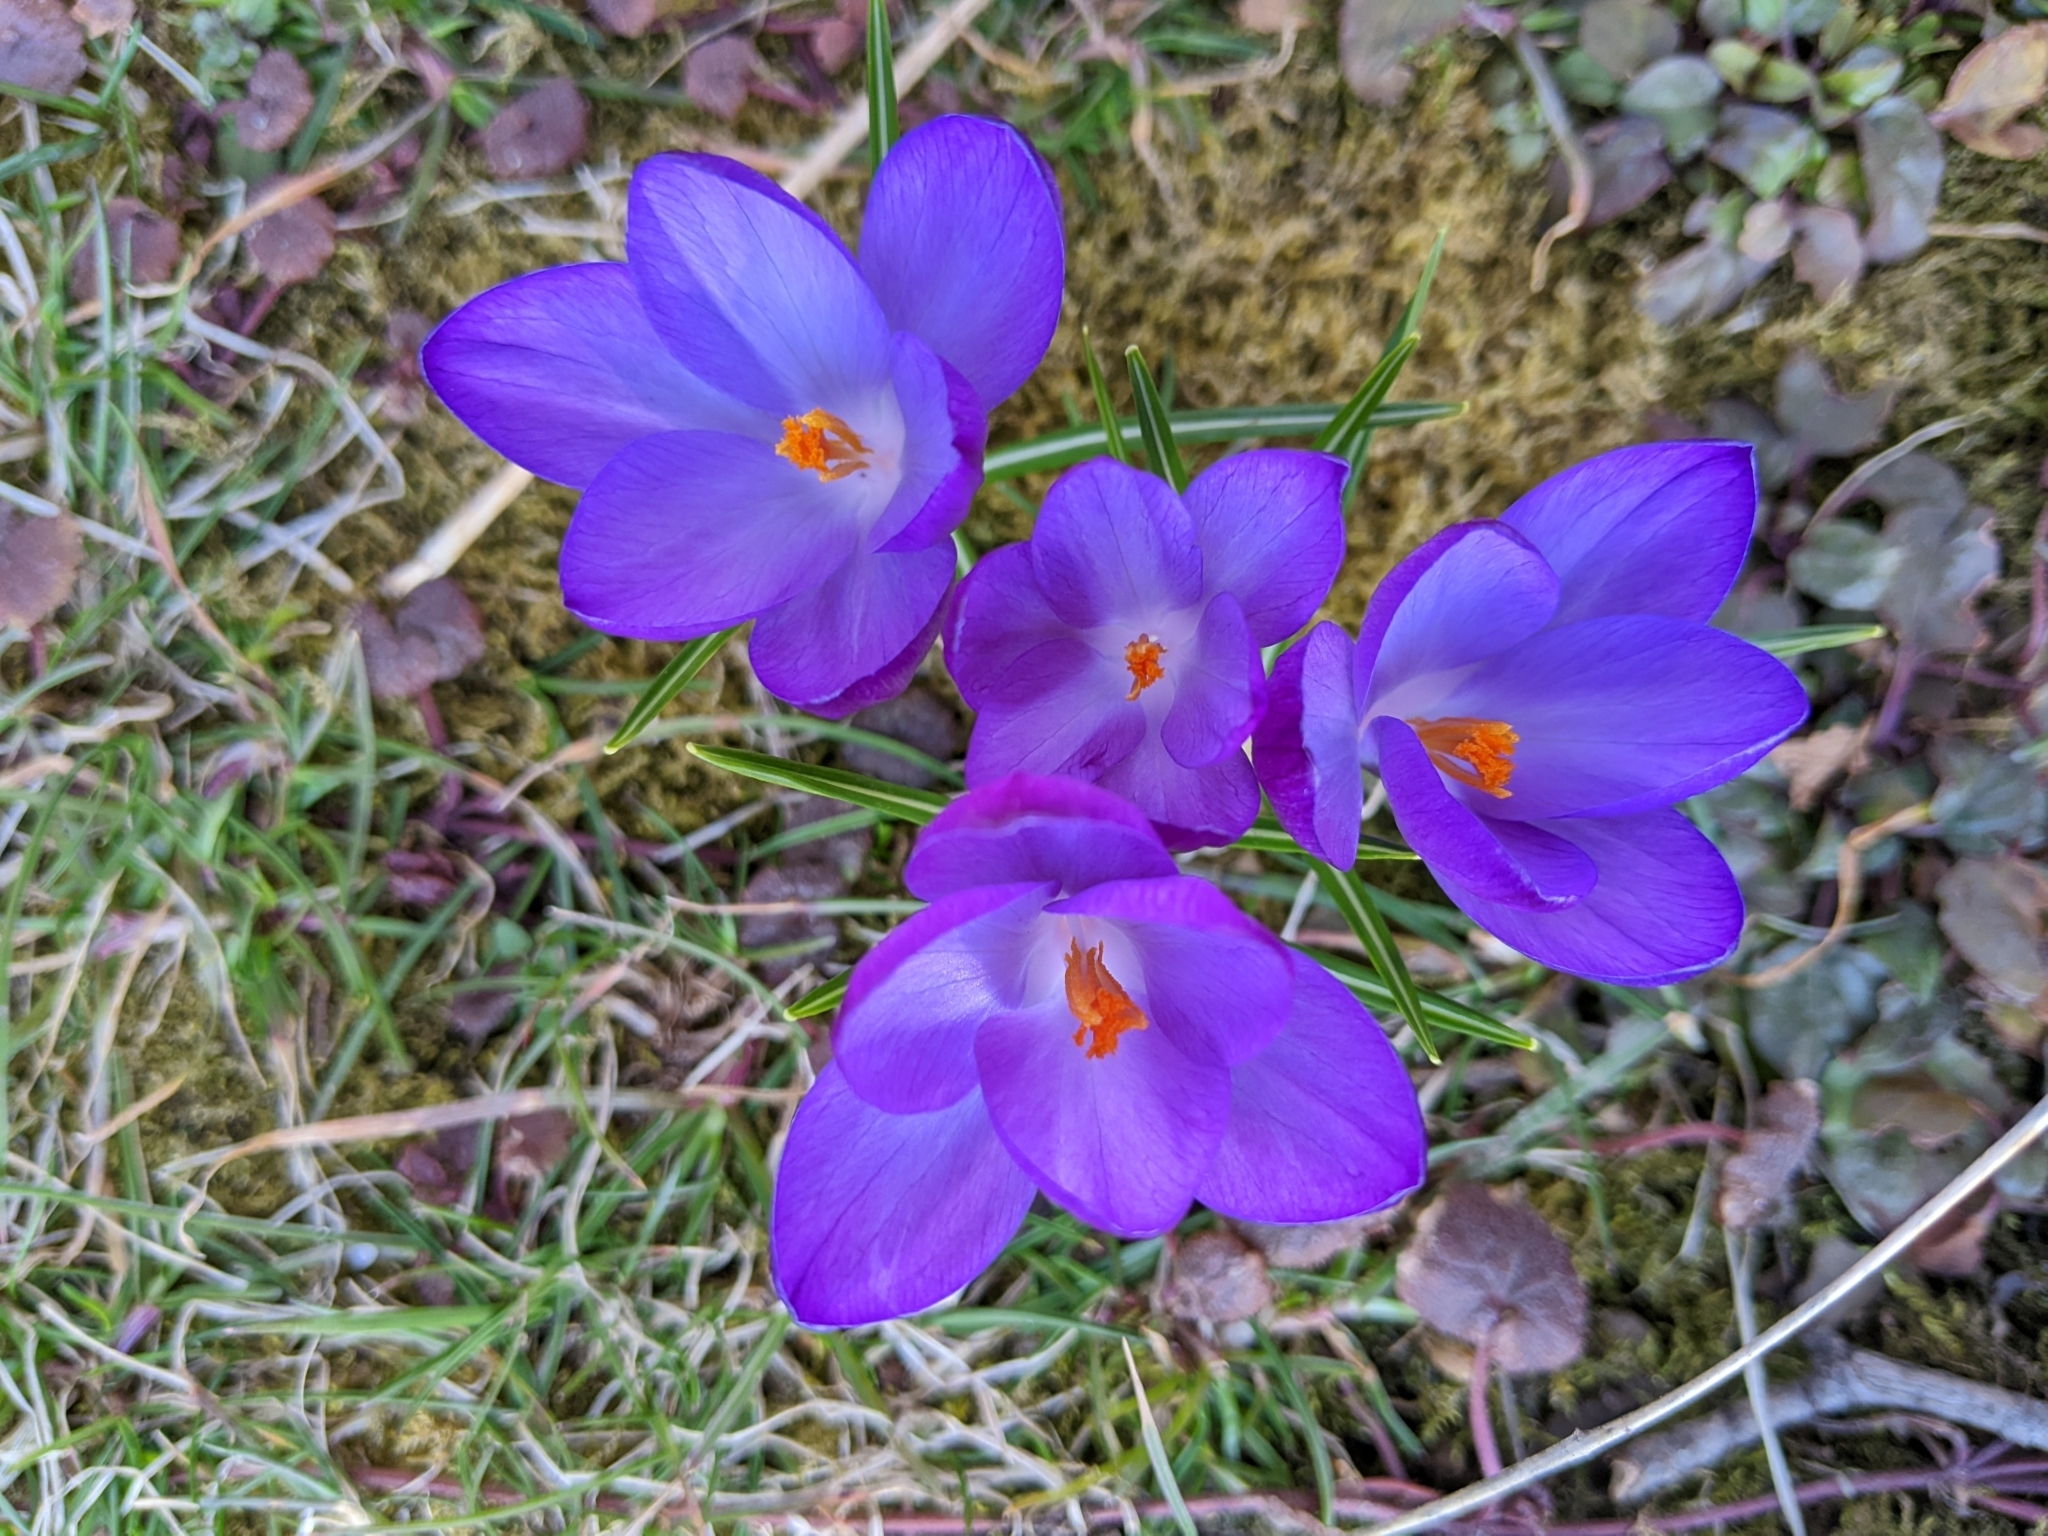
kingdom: Plantae
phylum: Tracheophyta
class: Liliopsida
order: Asparagales
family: Iridaceae
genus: Crocus
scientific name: Crocus tommasinianus
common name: Early crocus
